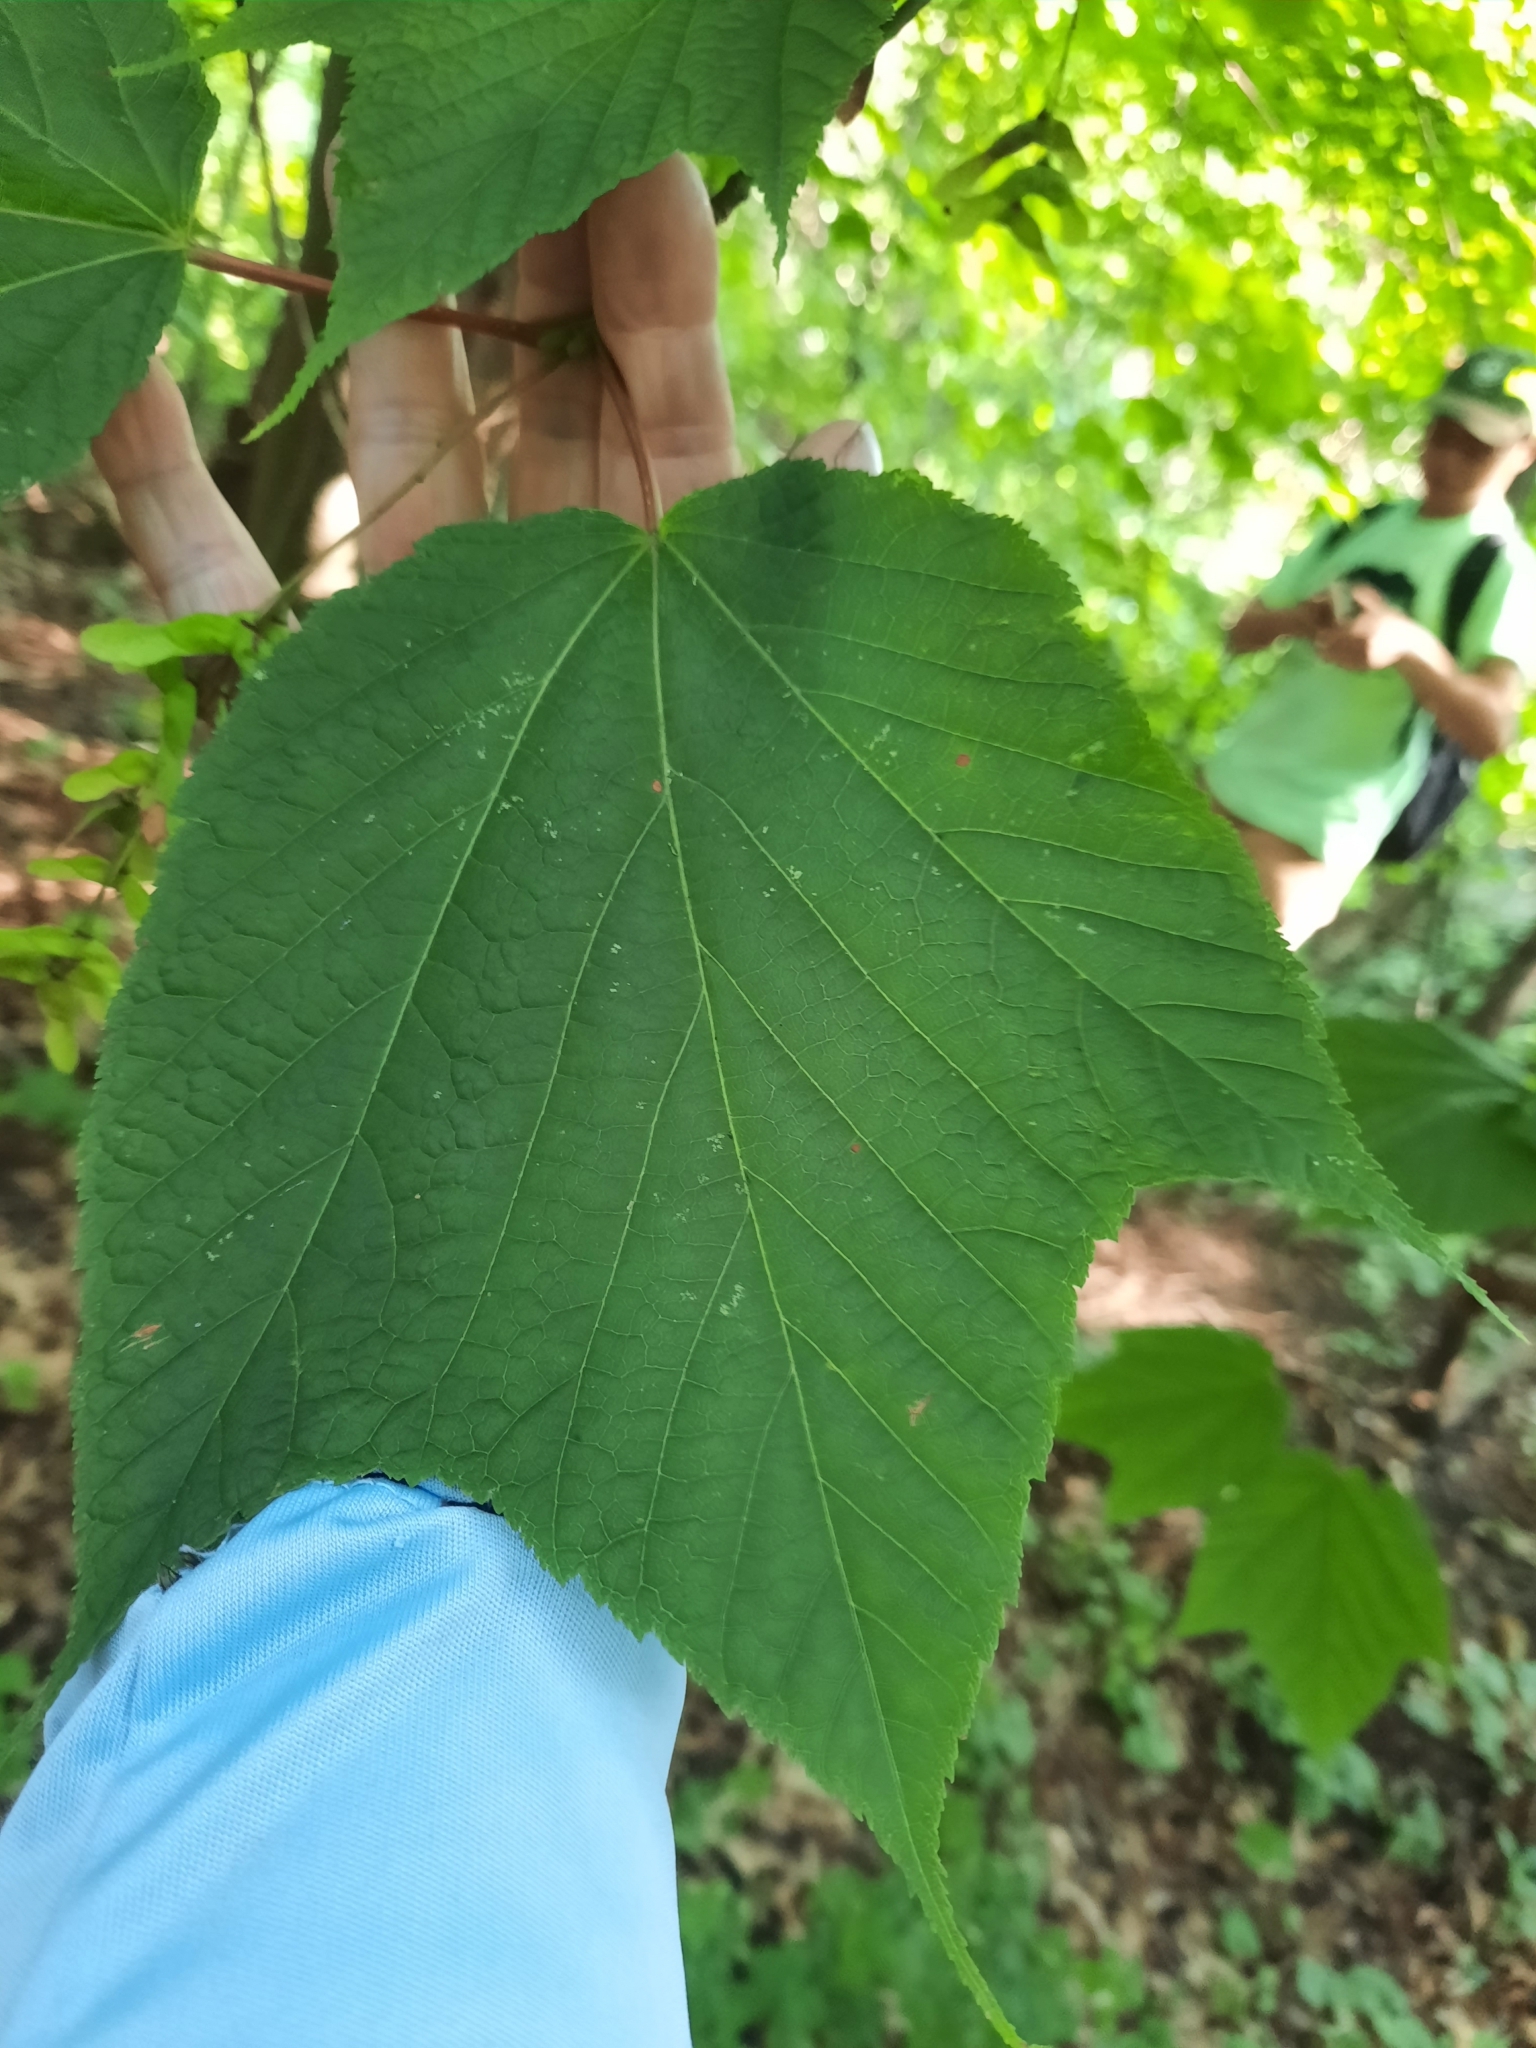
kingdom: Plantae
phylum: Tracheophyta
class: Magnoliopsida
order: Sapindales
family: Sapindaceae
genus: Acer
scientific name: Acer pensylvanicum
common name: Moosewood
